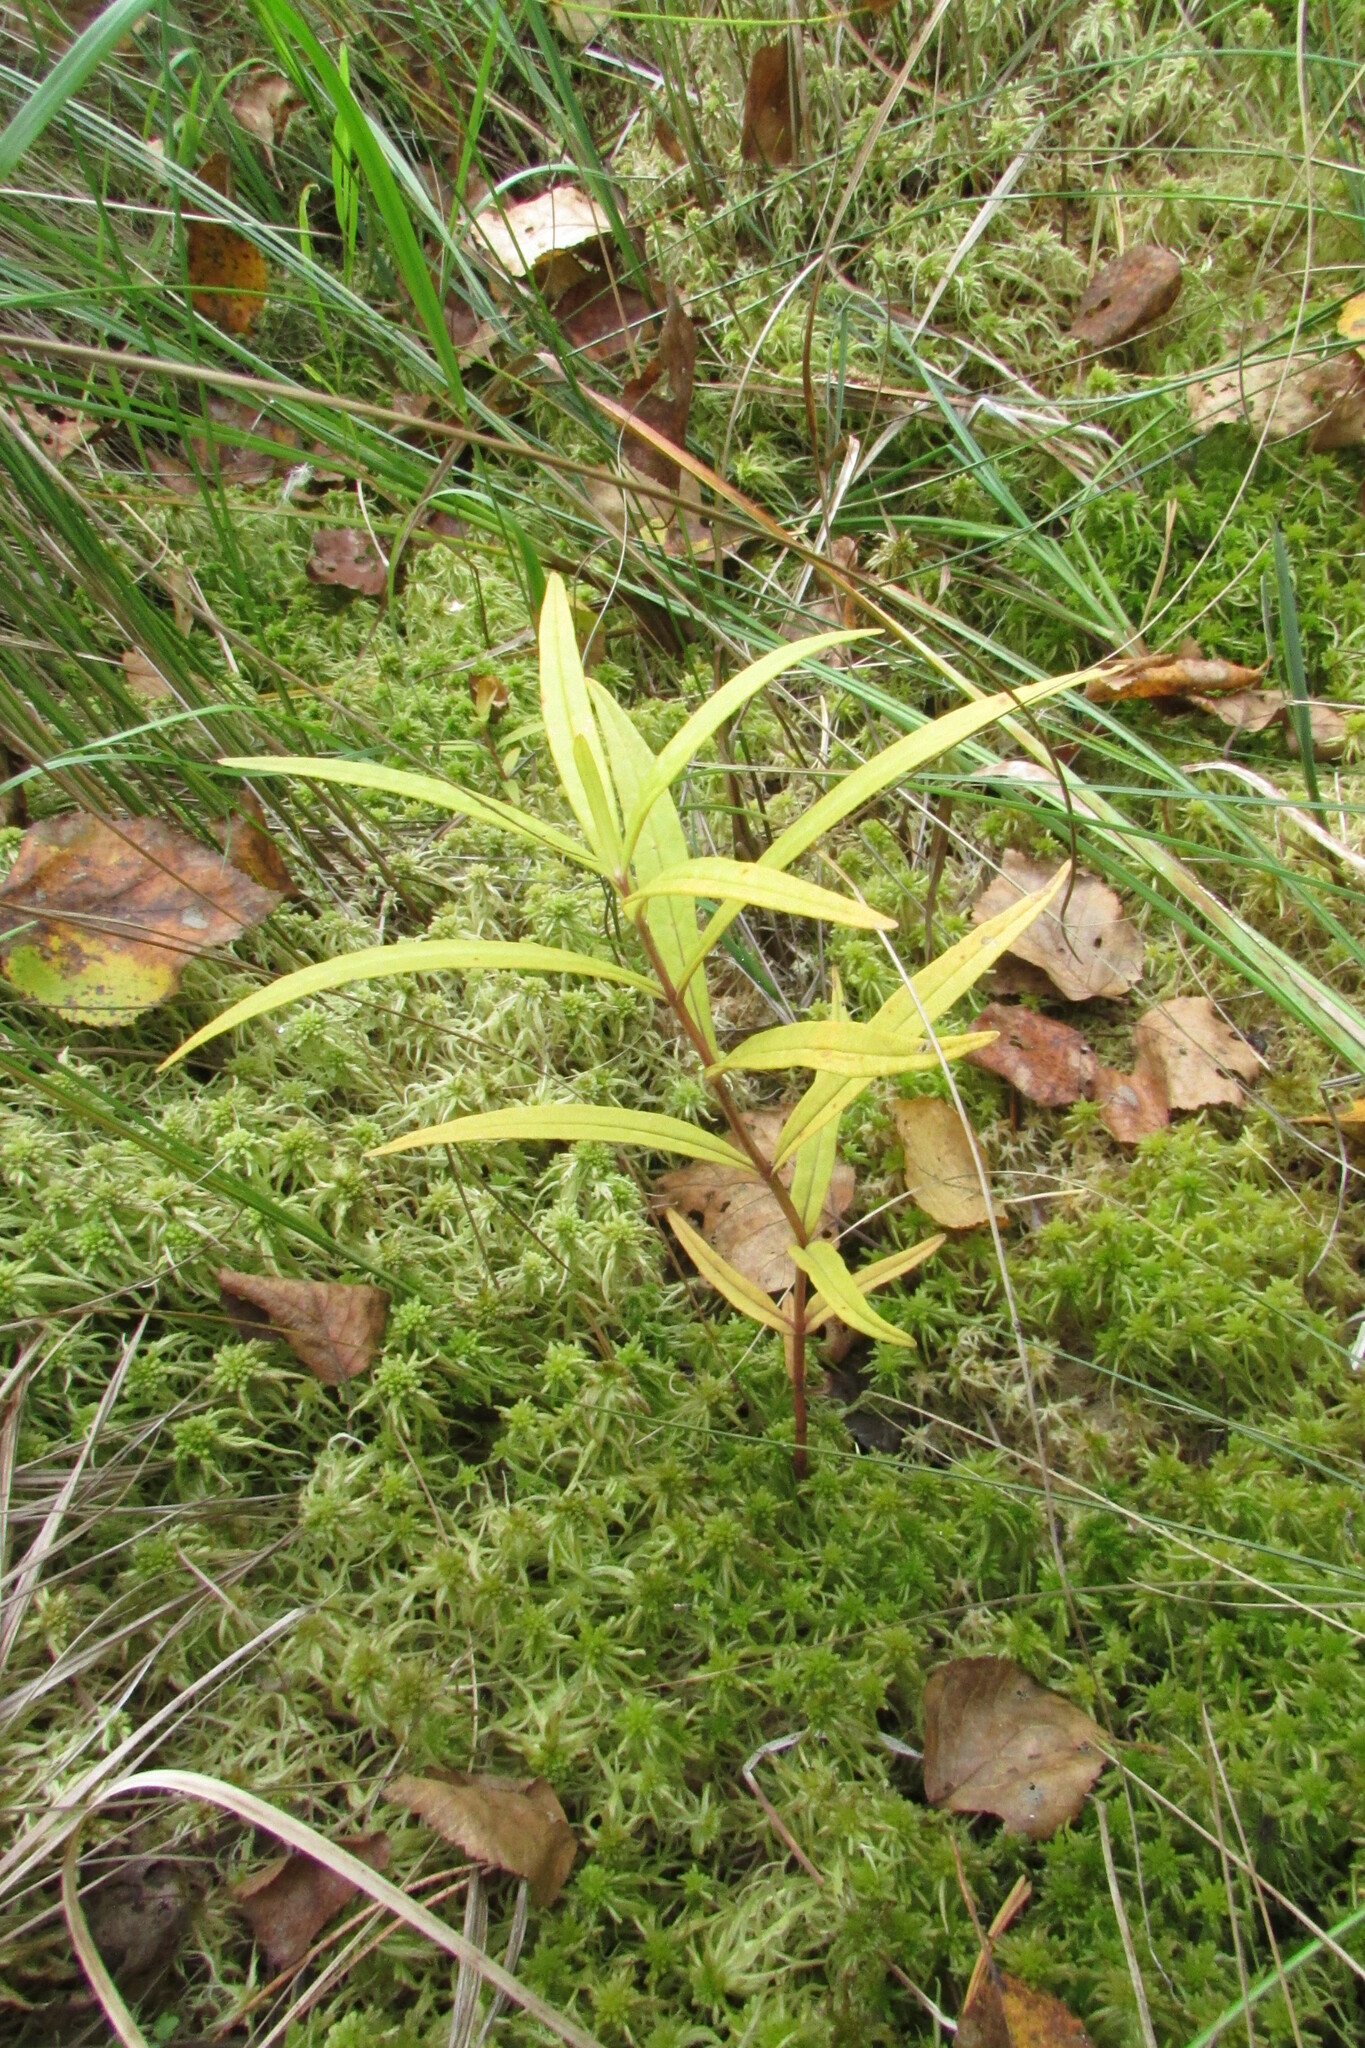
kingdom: Plantae
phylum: Tracheophyta
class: Magnoliopsida
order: Ericales
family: Primulaceae
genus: Lysimachia
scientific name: Lysimachia thyrsiflora
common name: Tufted loosestrife
